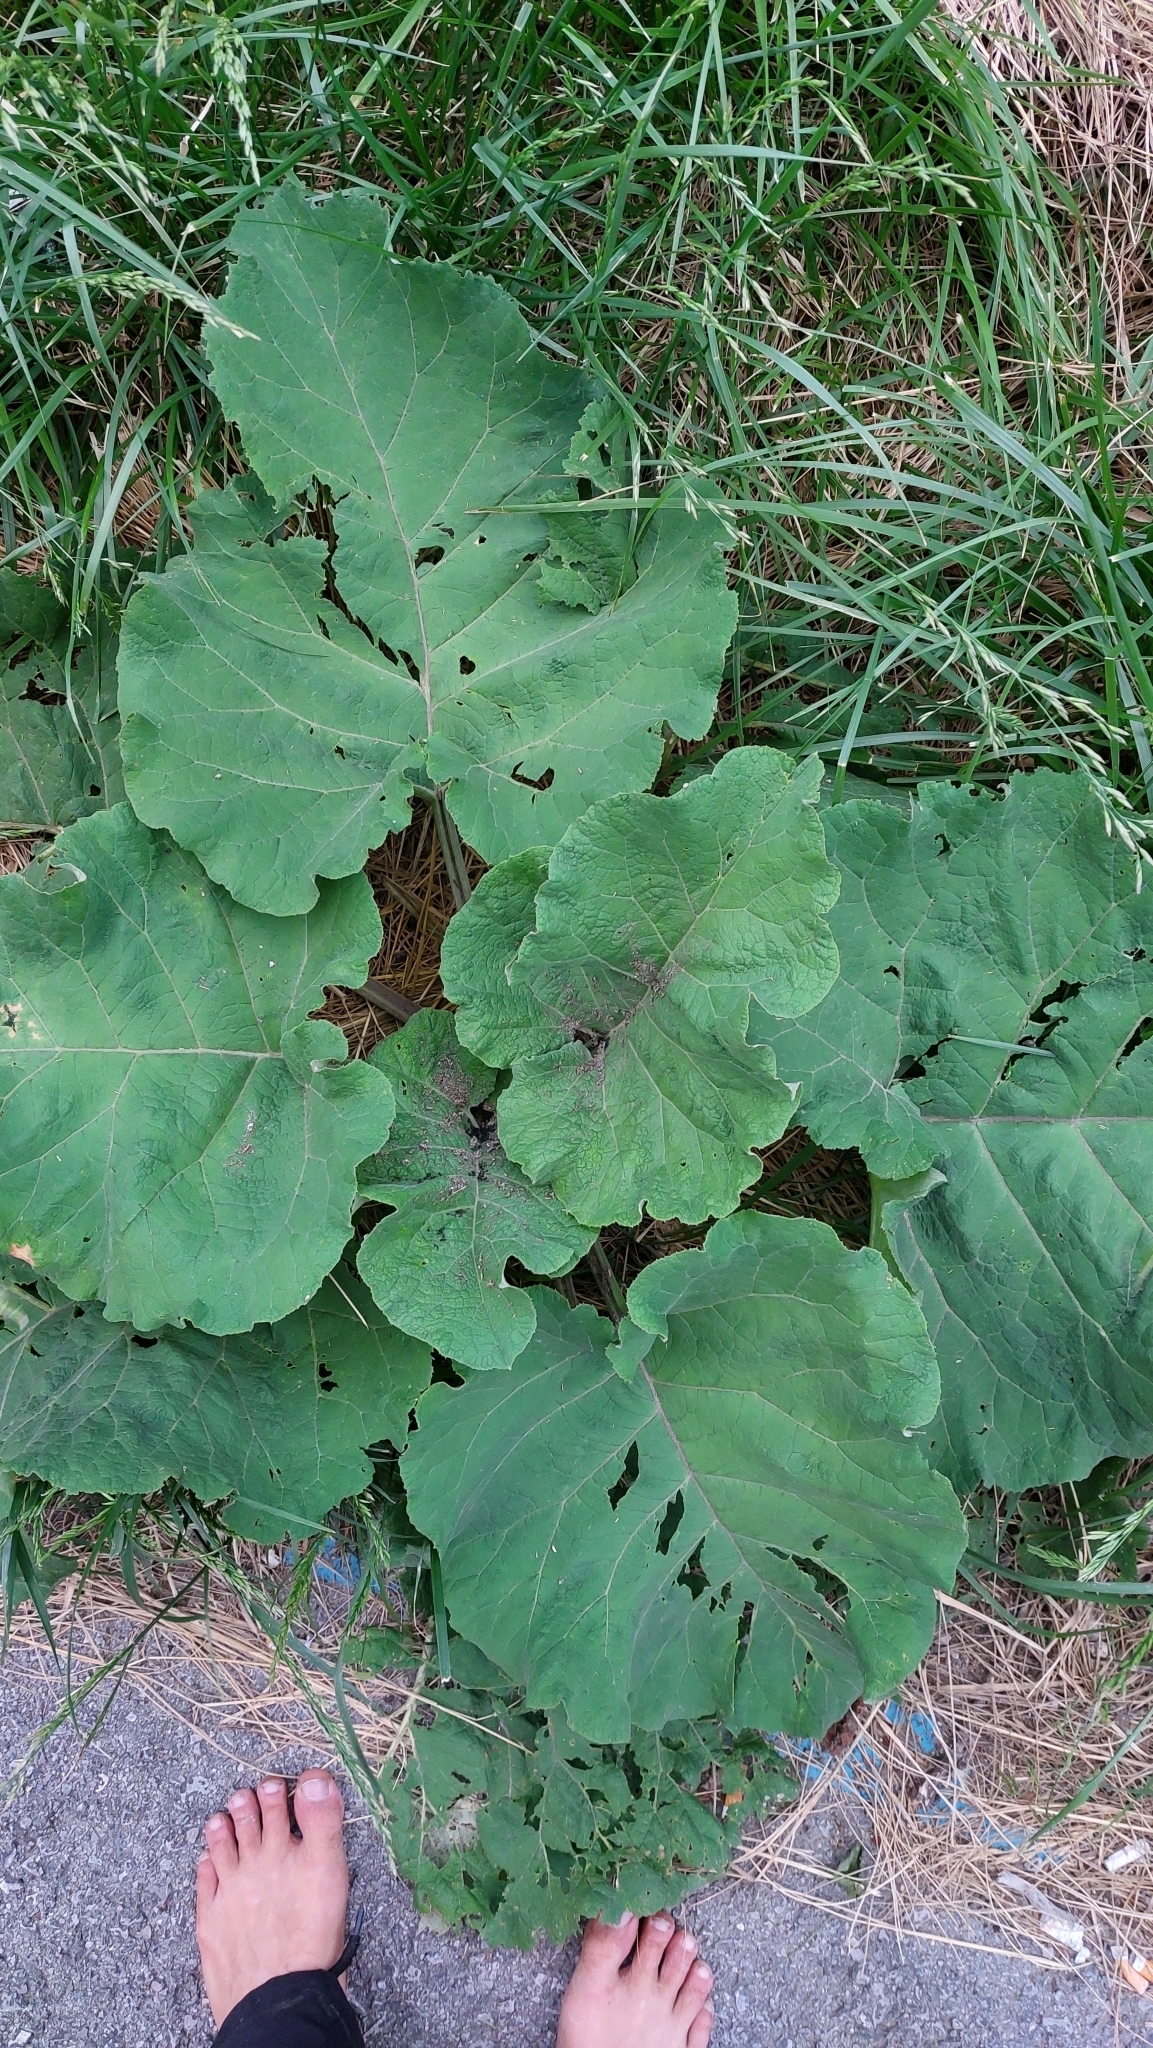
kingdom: Plantae
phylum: Tracheophyta
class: Magnoliopsida
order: Asterales
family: Asteraceae
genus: Arctium
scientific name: Arctium
